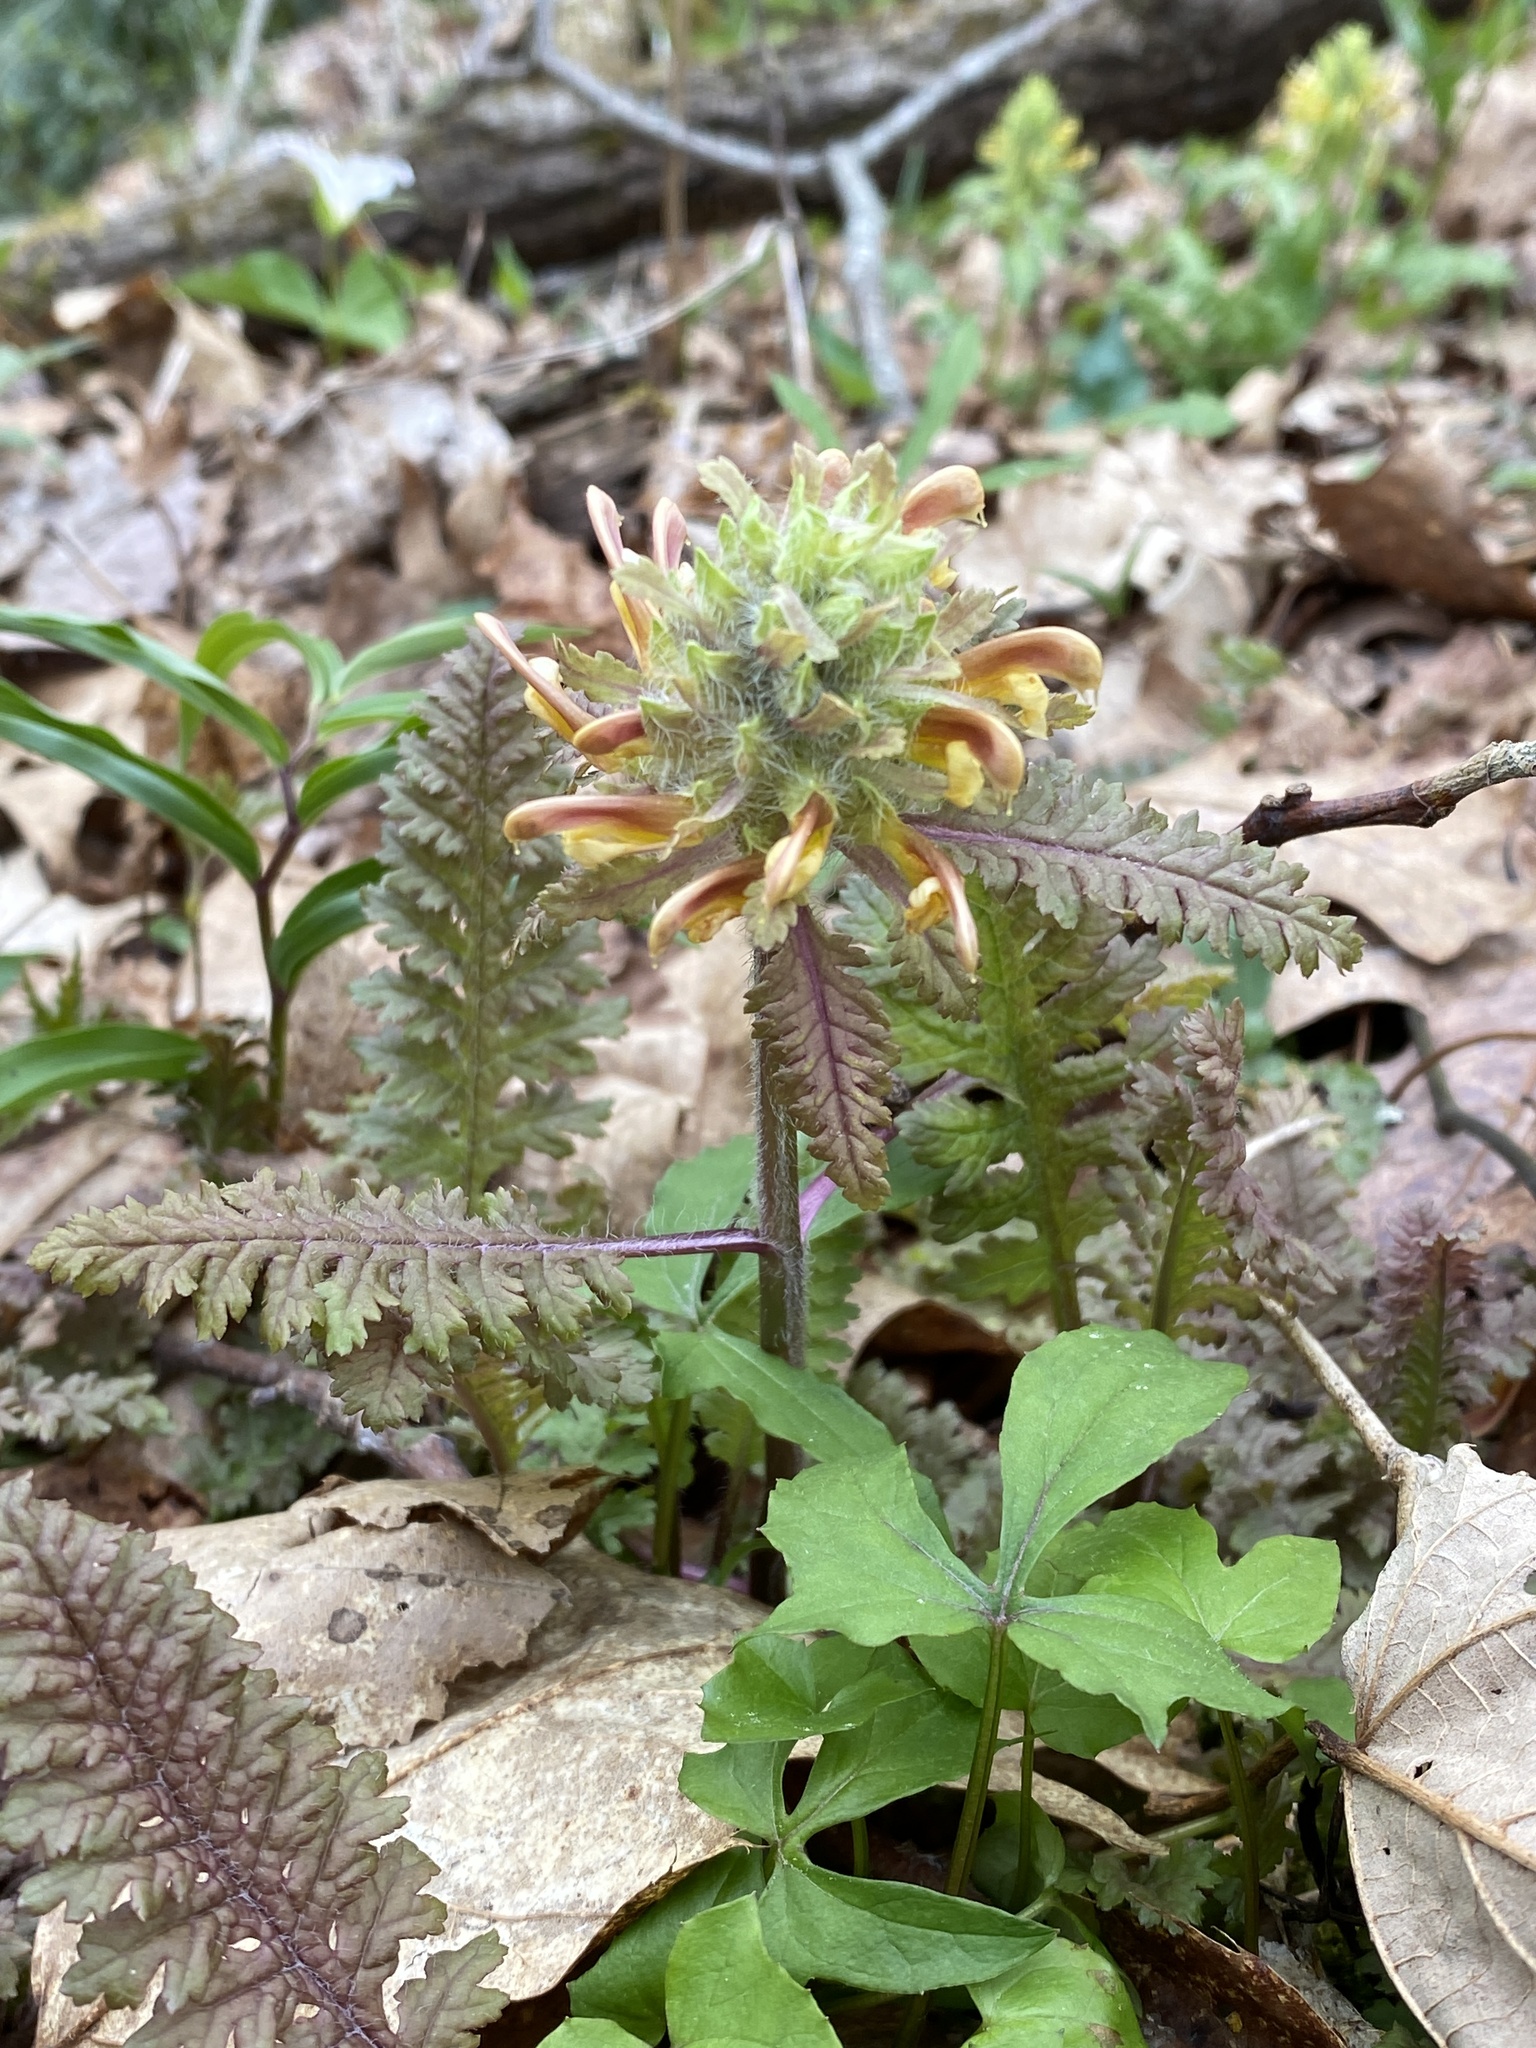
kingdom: Plantae
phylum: Tracheophyta
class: Magnoliopsida
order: Lamiales
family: Orobanchaceae
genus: Pedicularis
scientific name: Pedicularis canadensis
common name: Early lousewort
